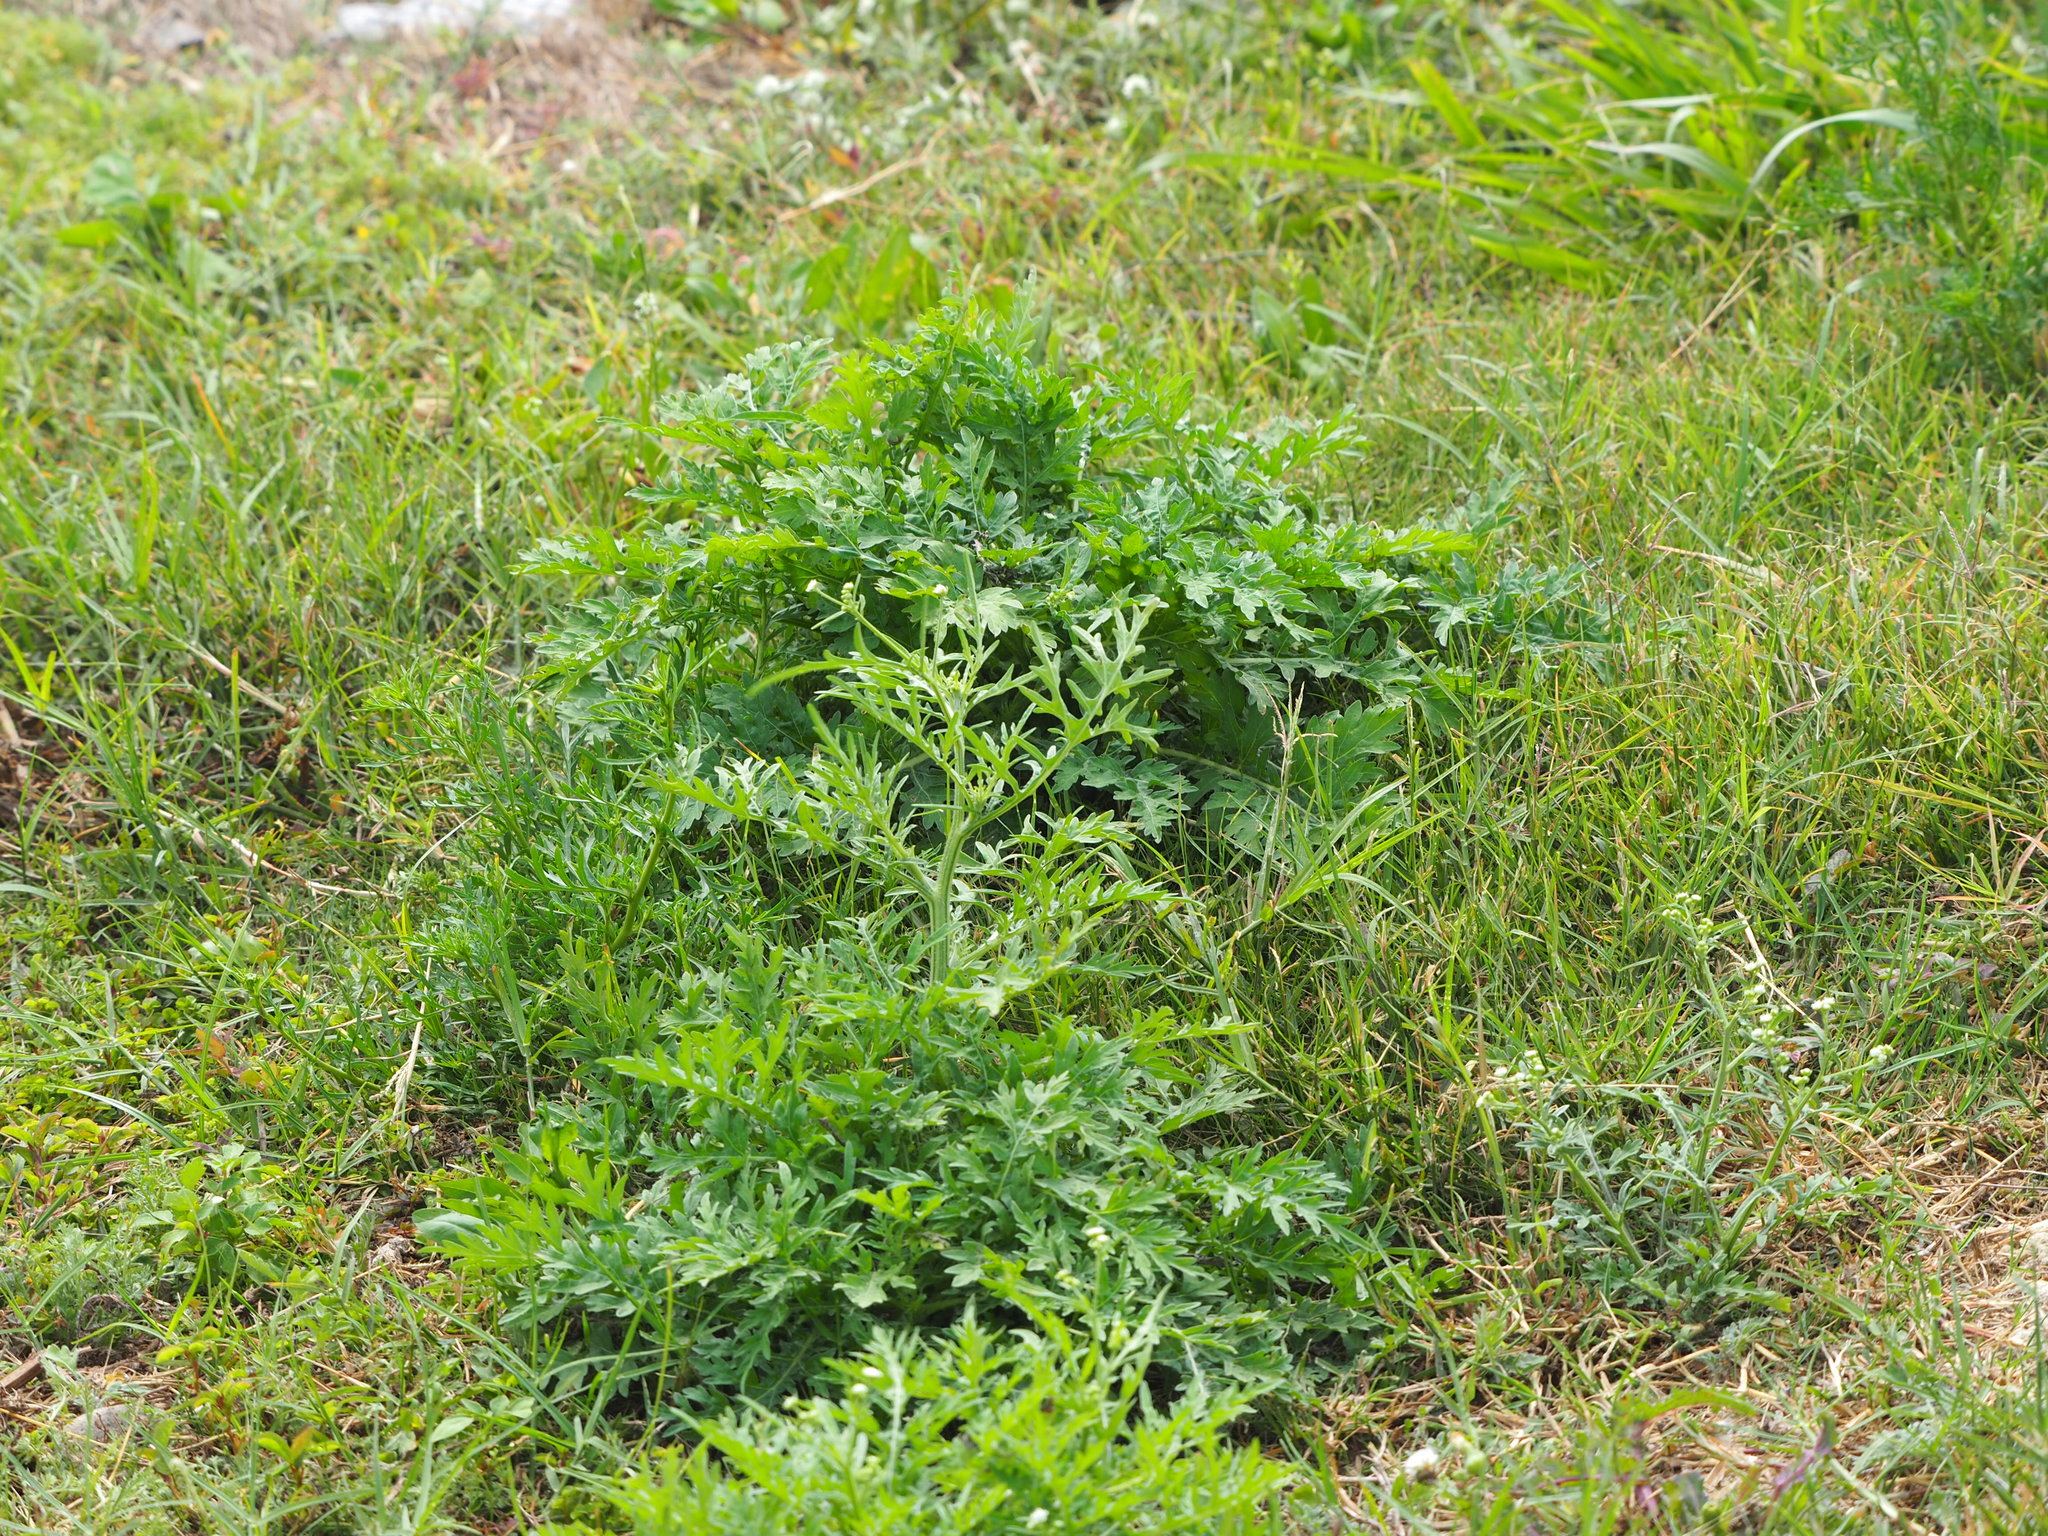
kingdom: Plantae
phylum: Tracheophyta
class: Magnoliopsida
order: Asterales
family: Asteraceae
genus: Parthenium
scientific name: Parthenium hysterophorus
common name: Santa maria feverfew
